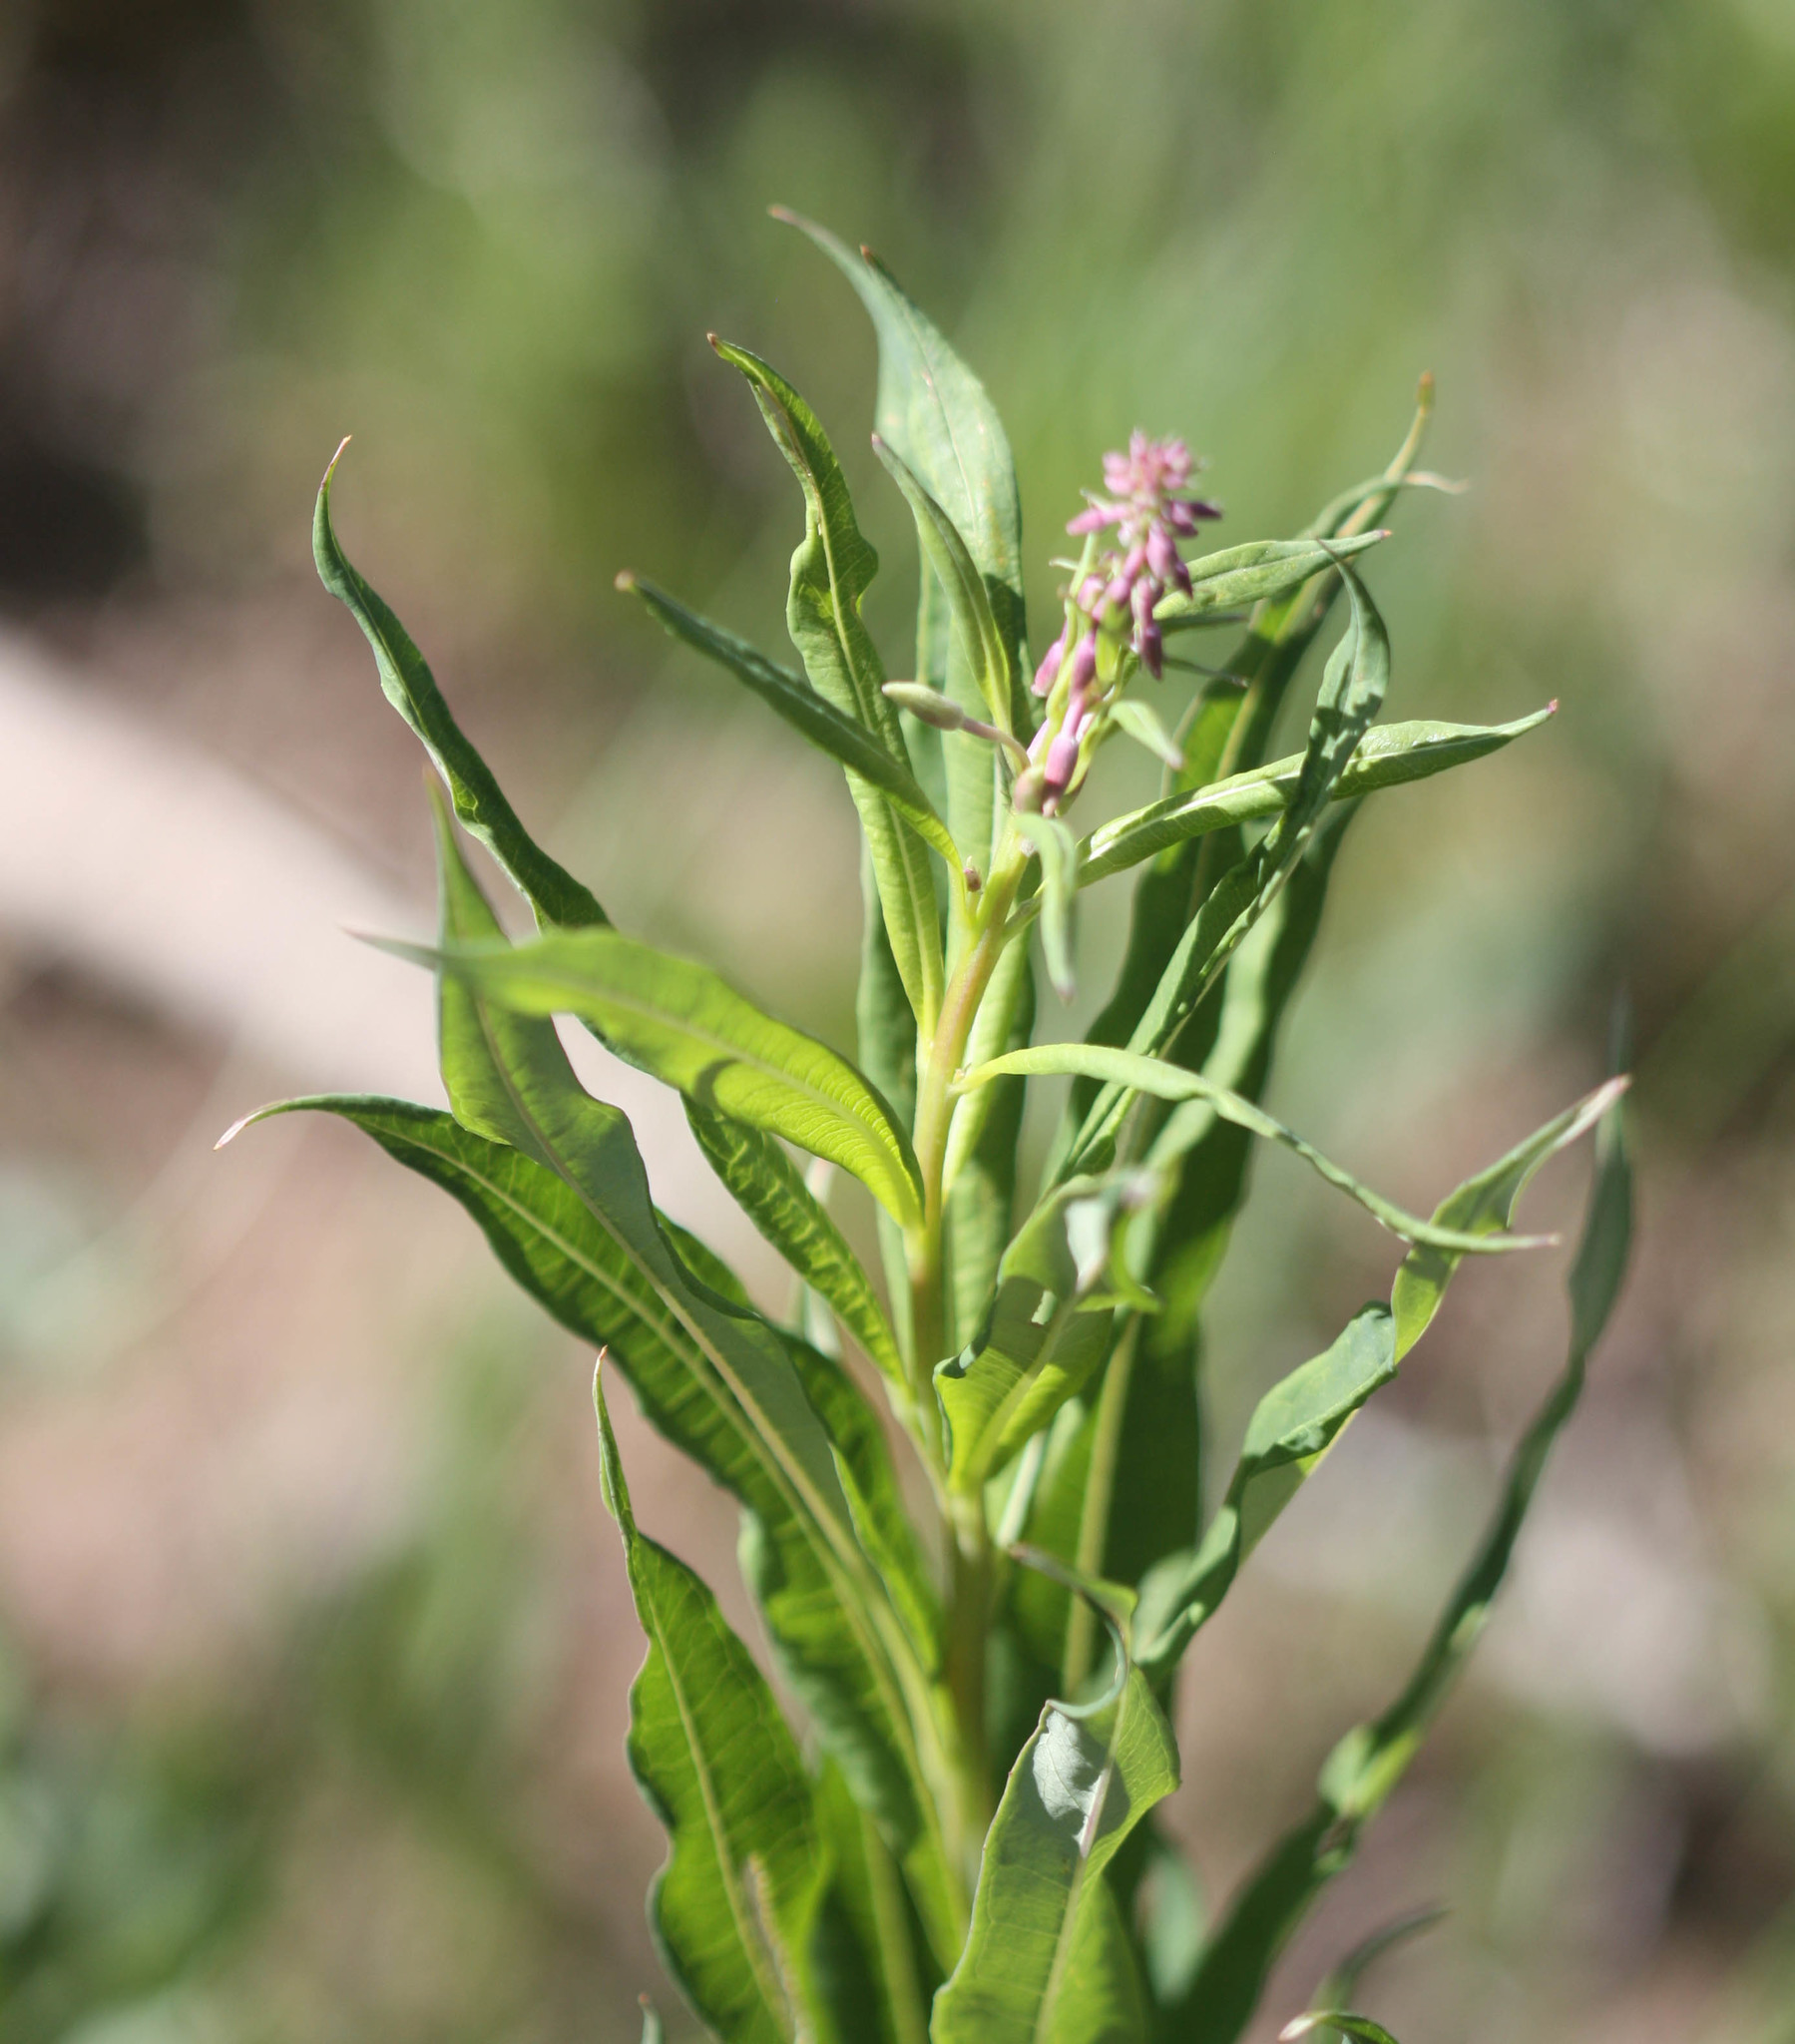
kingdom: Plantae
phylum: Tracheophyta
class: Magnoliopsida
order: Myrtales
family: Onagraceae
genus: Chamaenerion
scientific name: Chamaenerion angustifolium
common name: Fireweed
